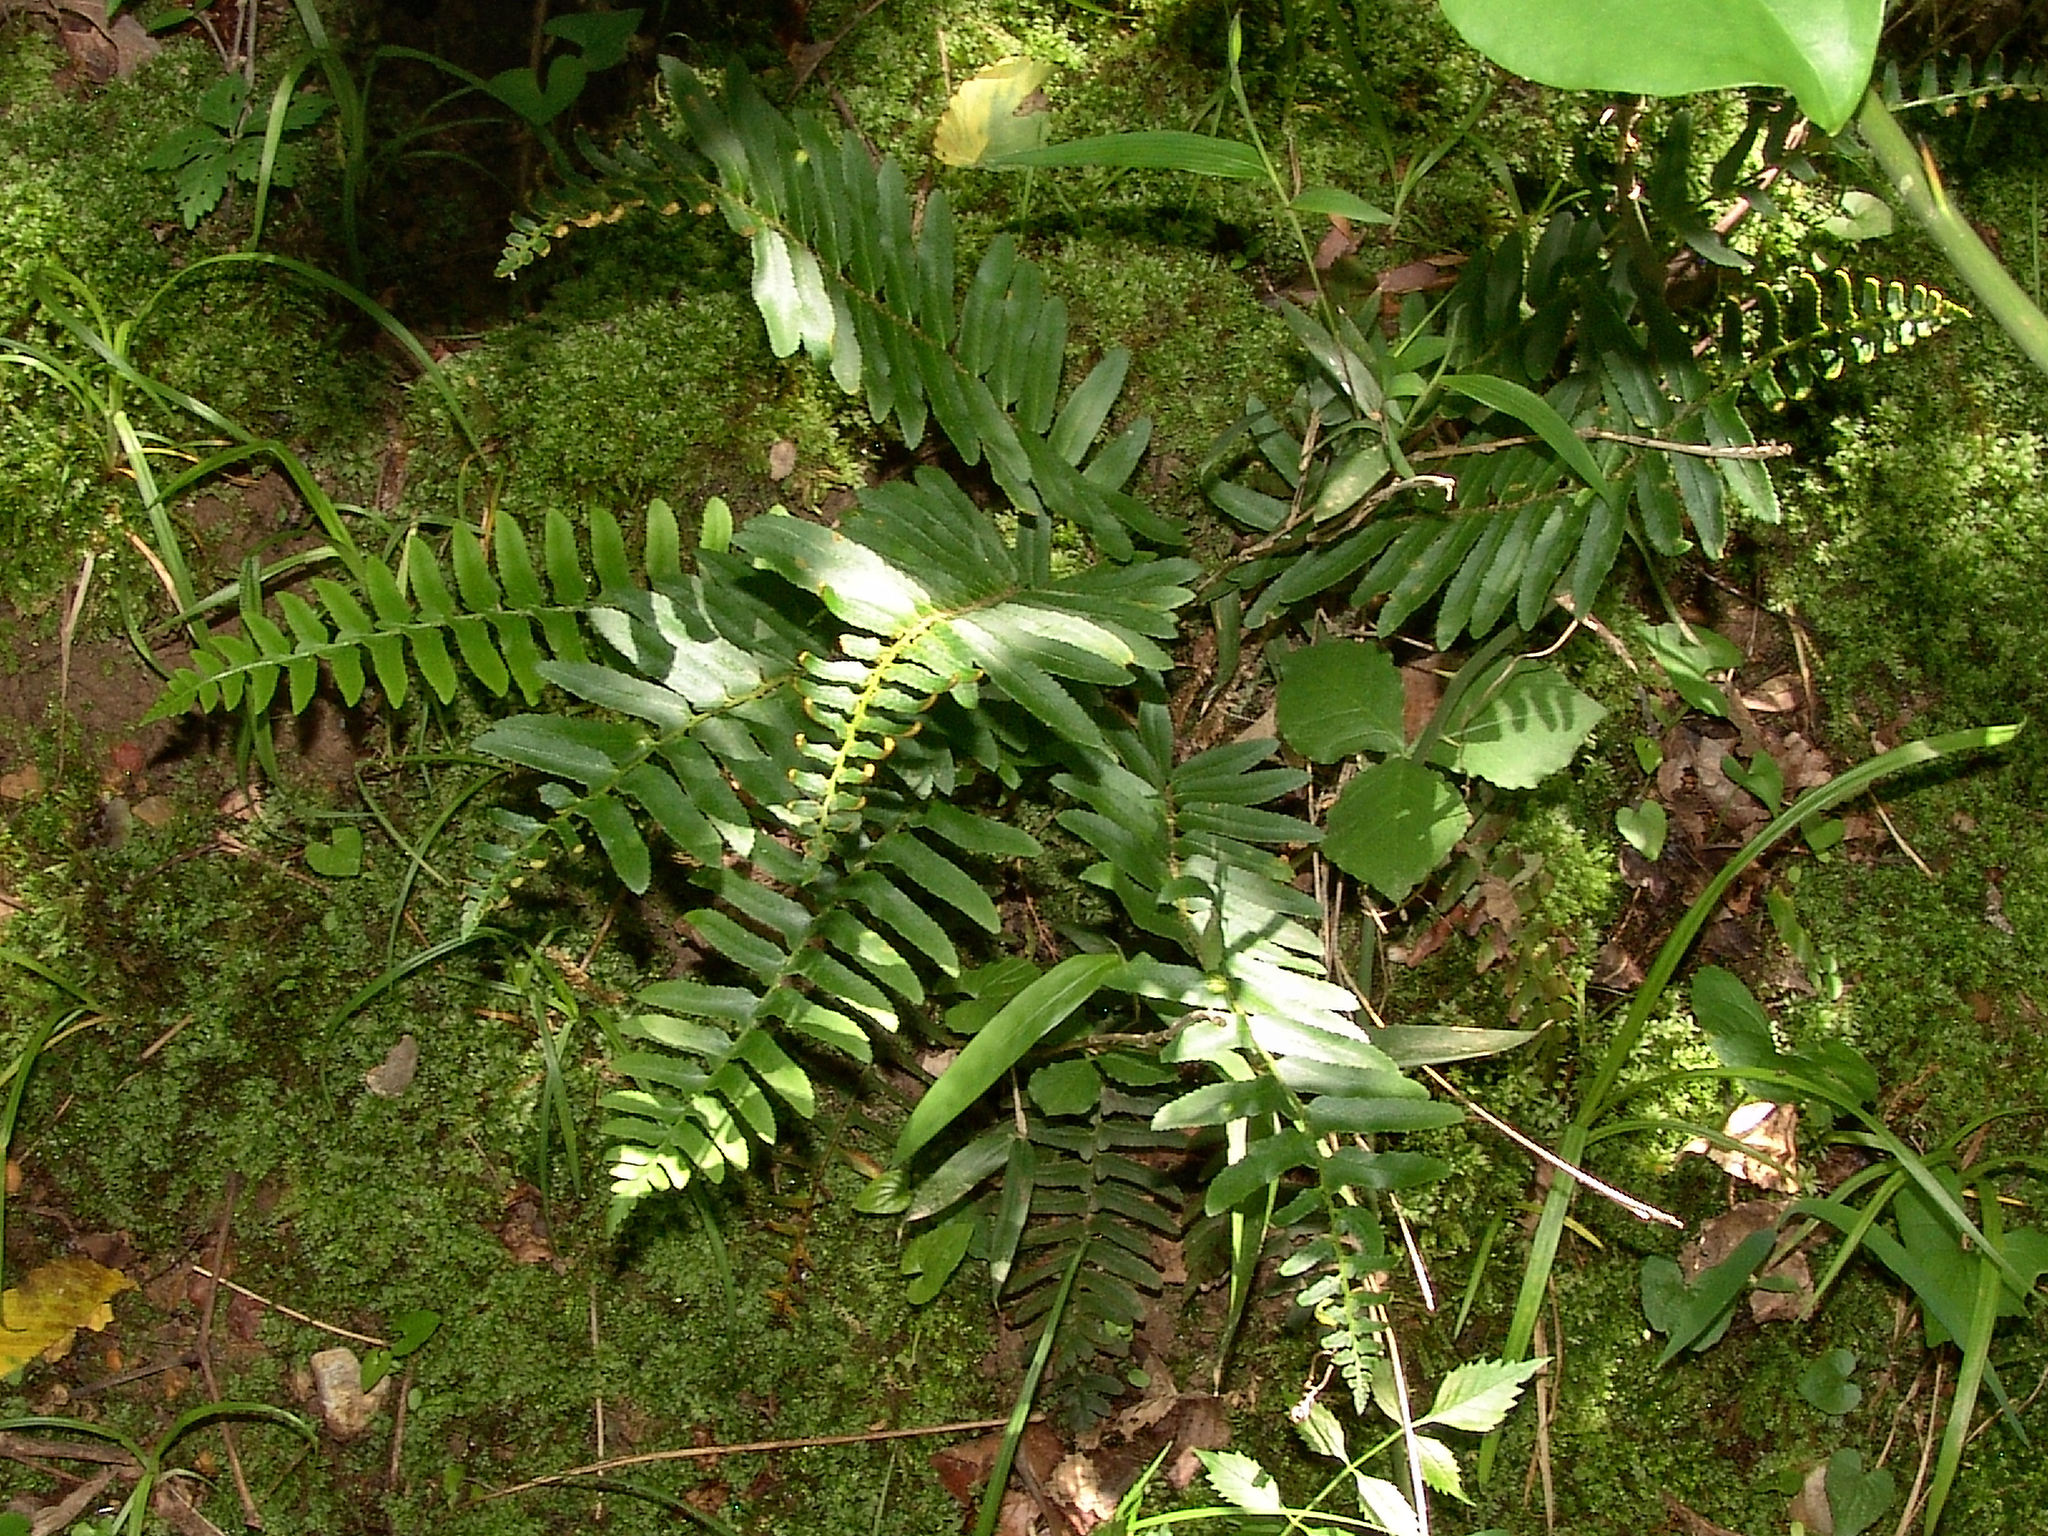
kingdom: Plantae
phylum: Tracheophyta
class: Polypodiopsida
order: Polypodiales
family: Dryopteridaceae
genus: Polystichum
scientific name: Polystichum acrostichoides
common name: Christmas fern
